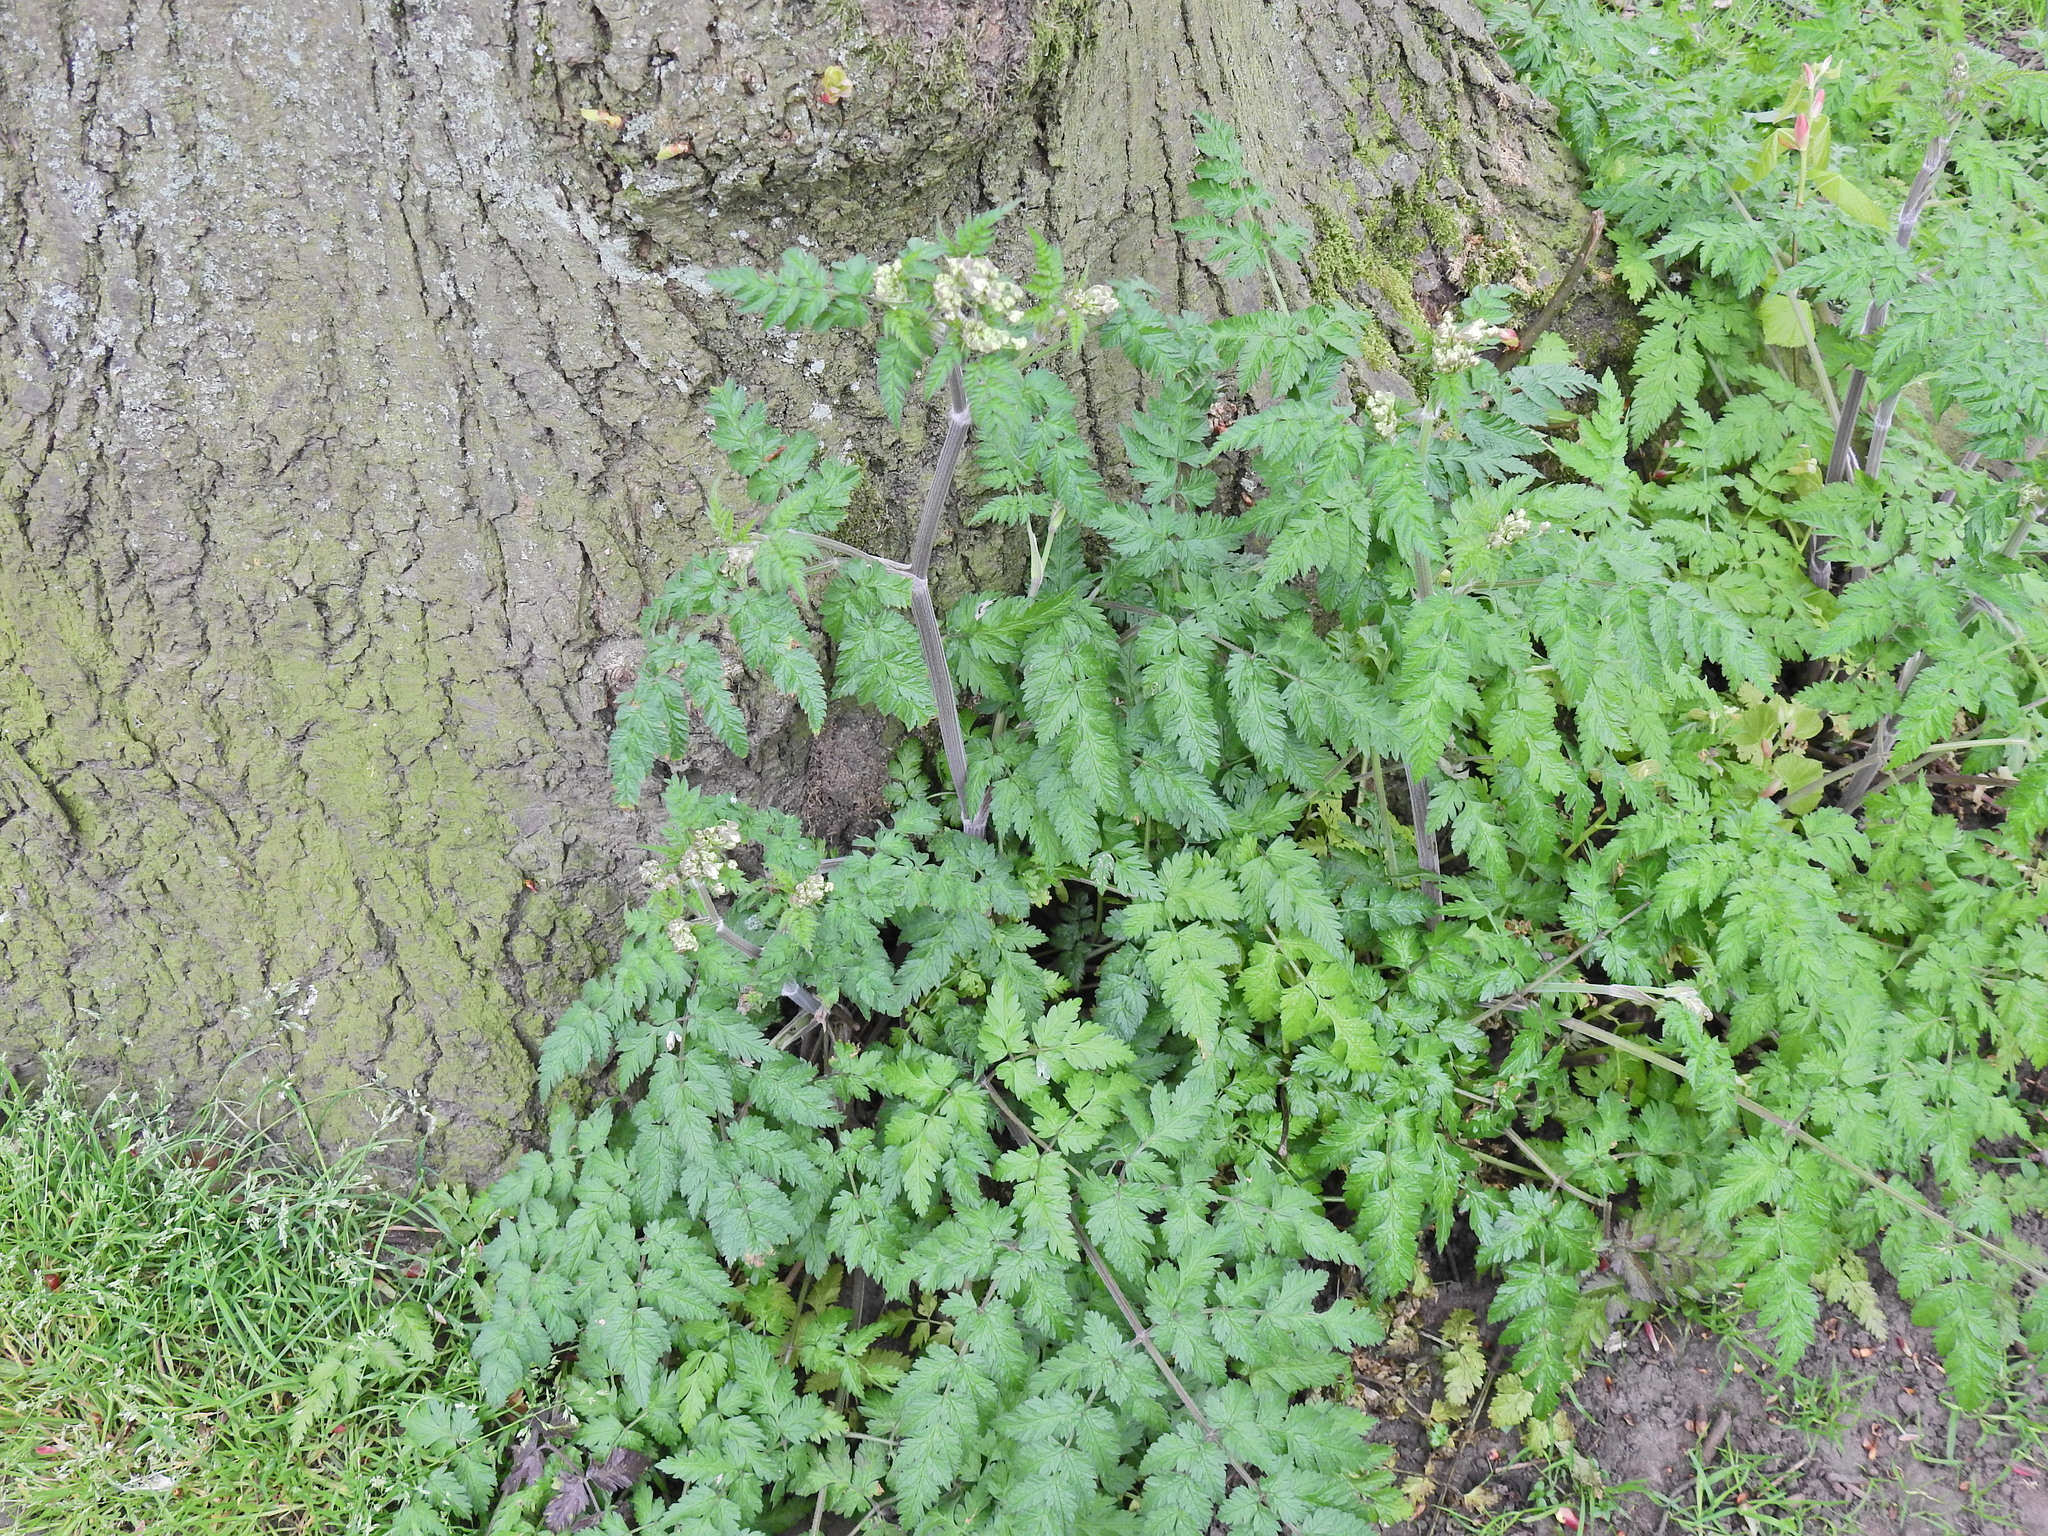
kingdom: Plantae
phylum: Tracheophyta
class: Magnoliopsida
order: Apiales
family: Apiaceae
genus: Anthriscus
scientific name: Anthriscus sylvestris
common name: Cow parsley
